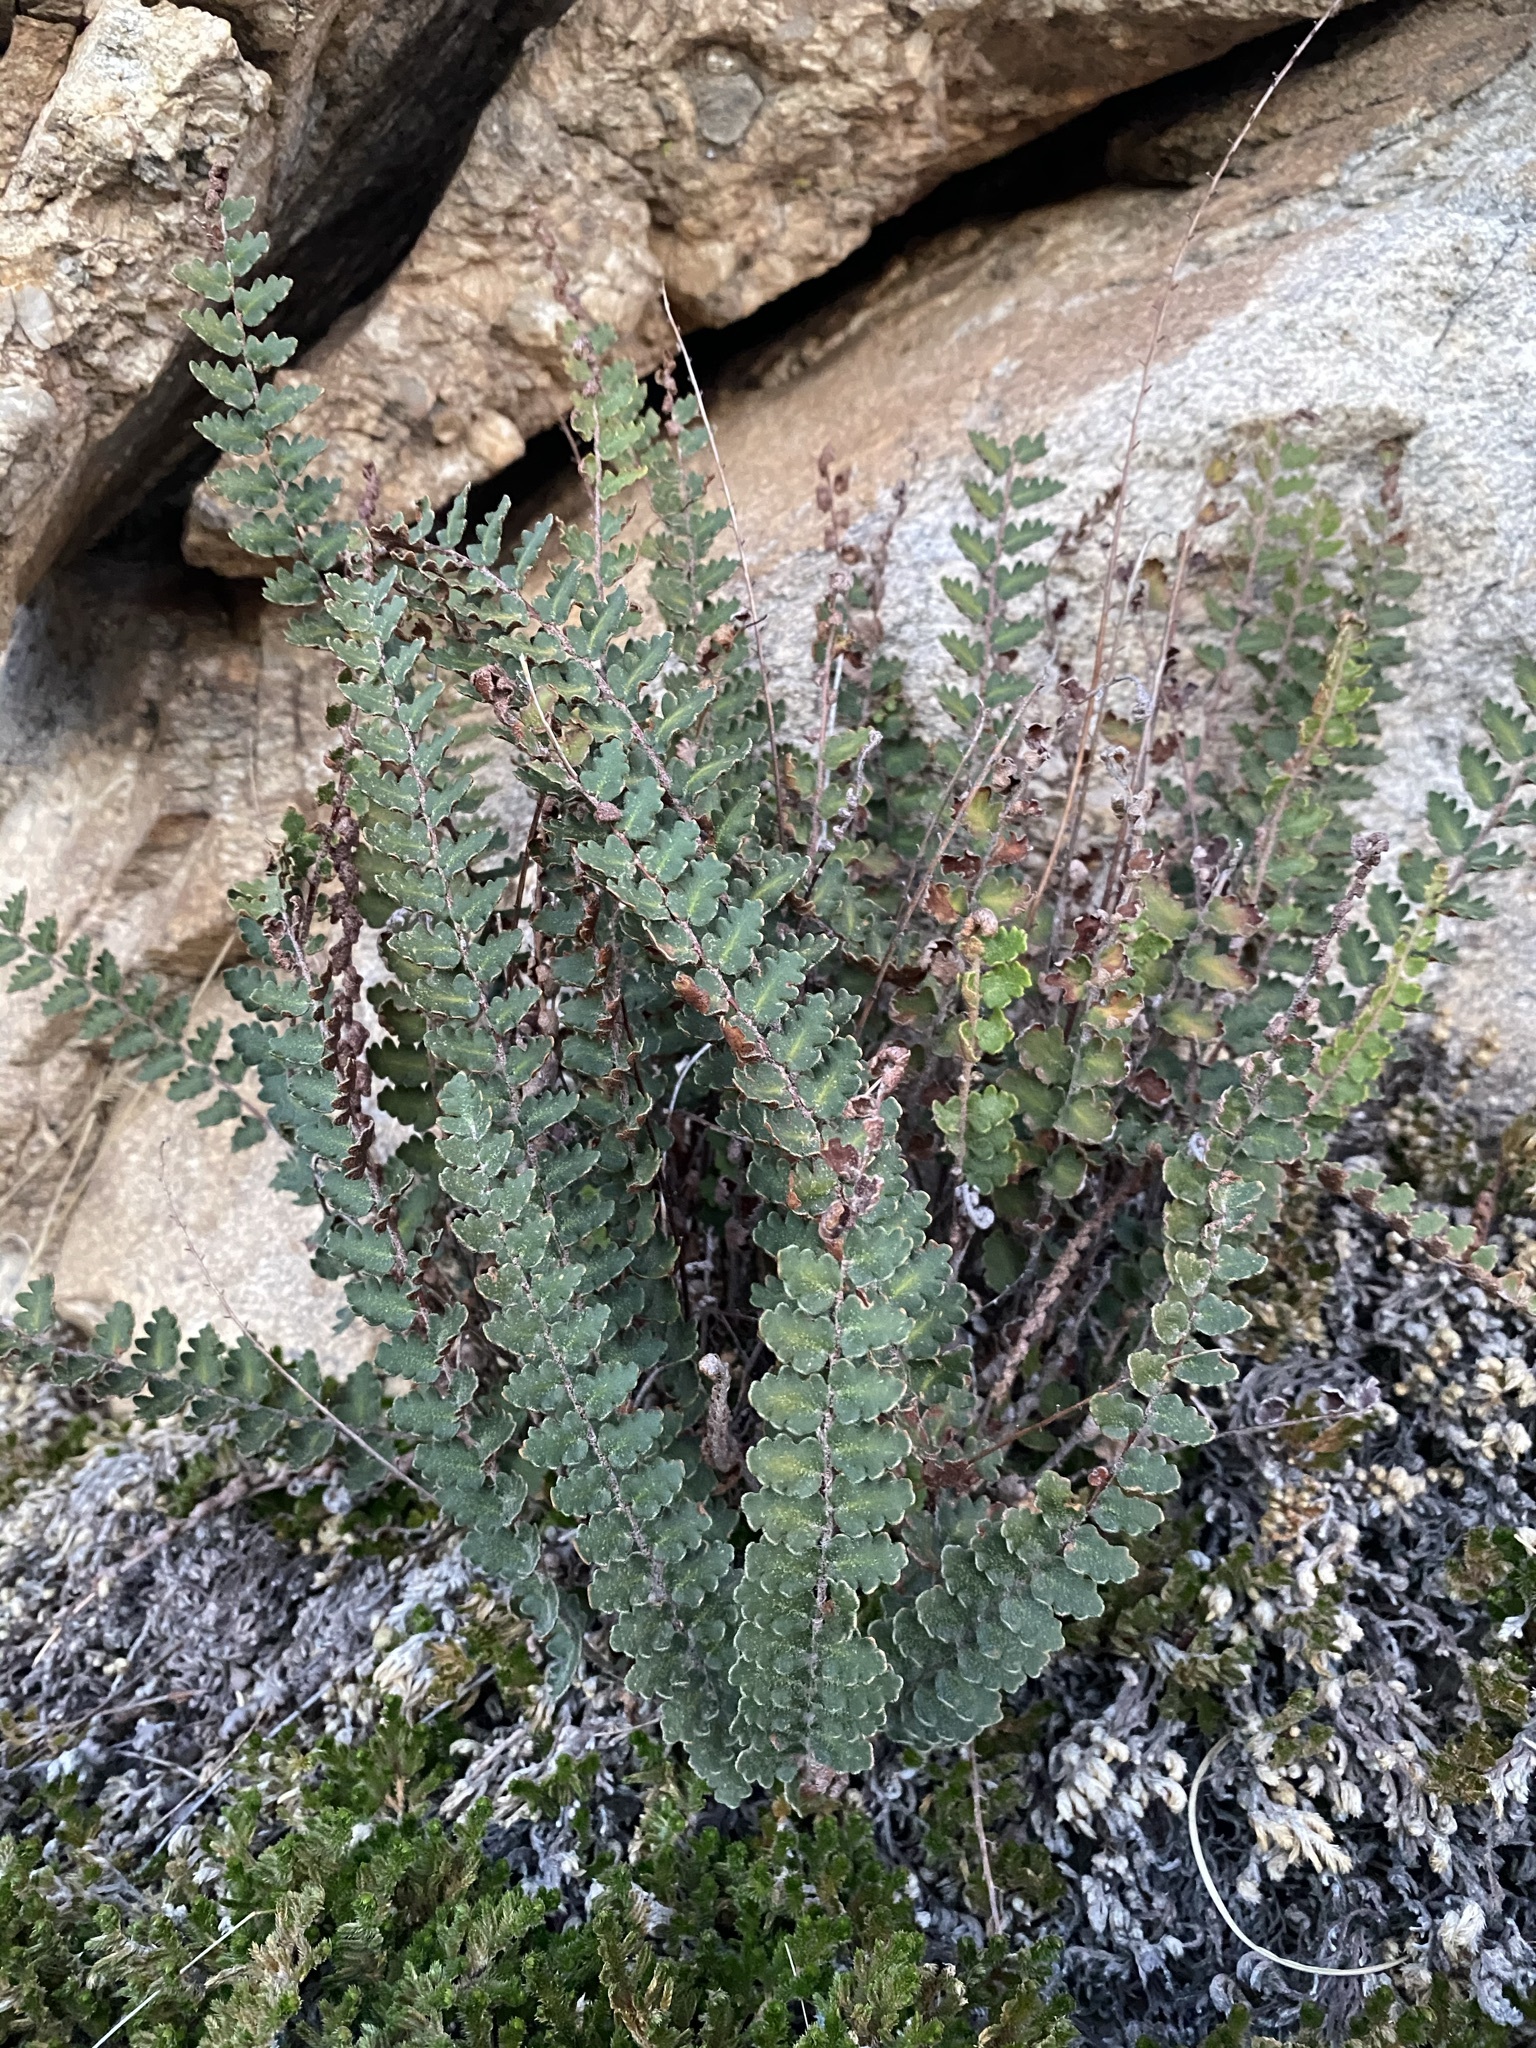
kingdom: Plantae
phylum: Tracheophyta
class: Polypodiopsida
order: Polypodiales
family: Pteridaceae
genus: Astrolepis
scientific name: Astrolepis sinuata
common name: Wavy scaly cloakfern
